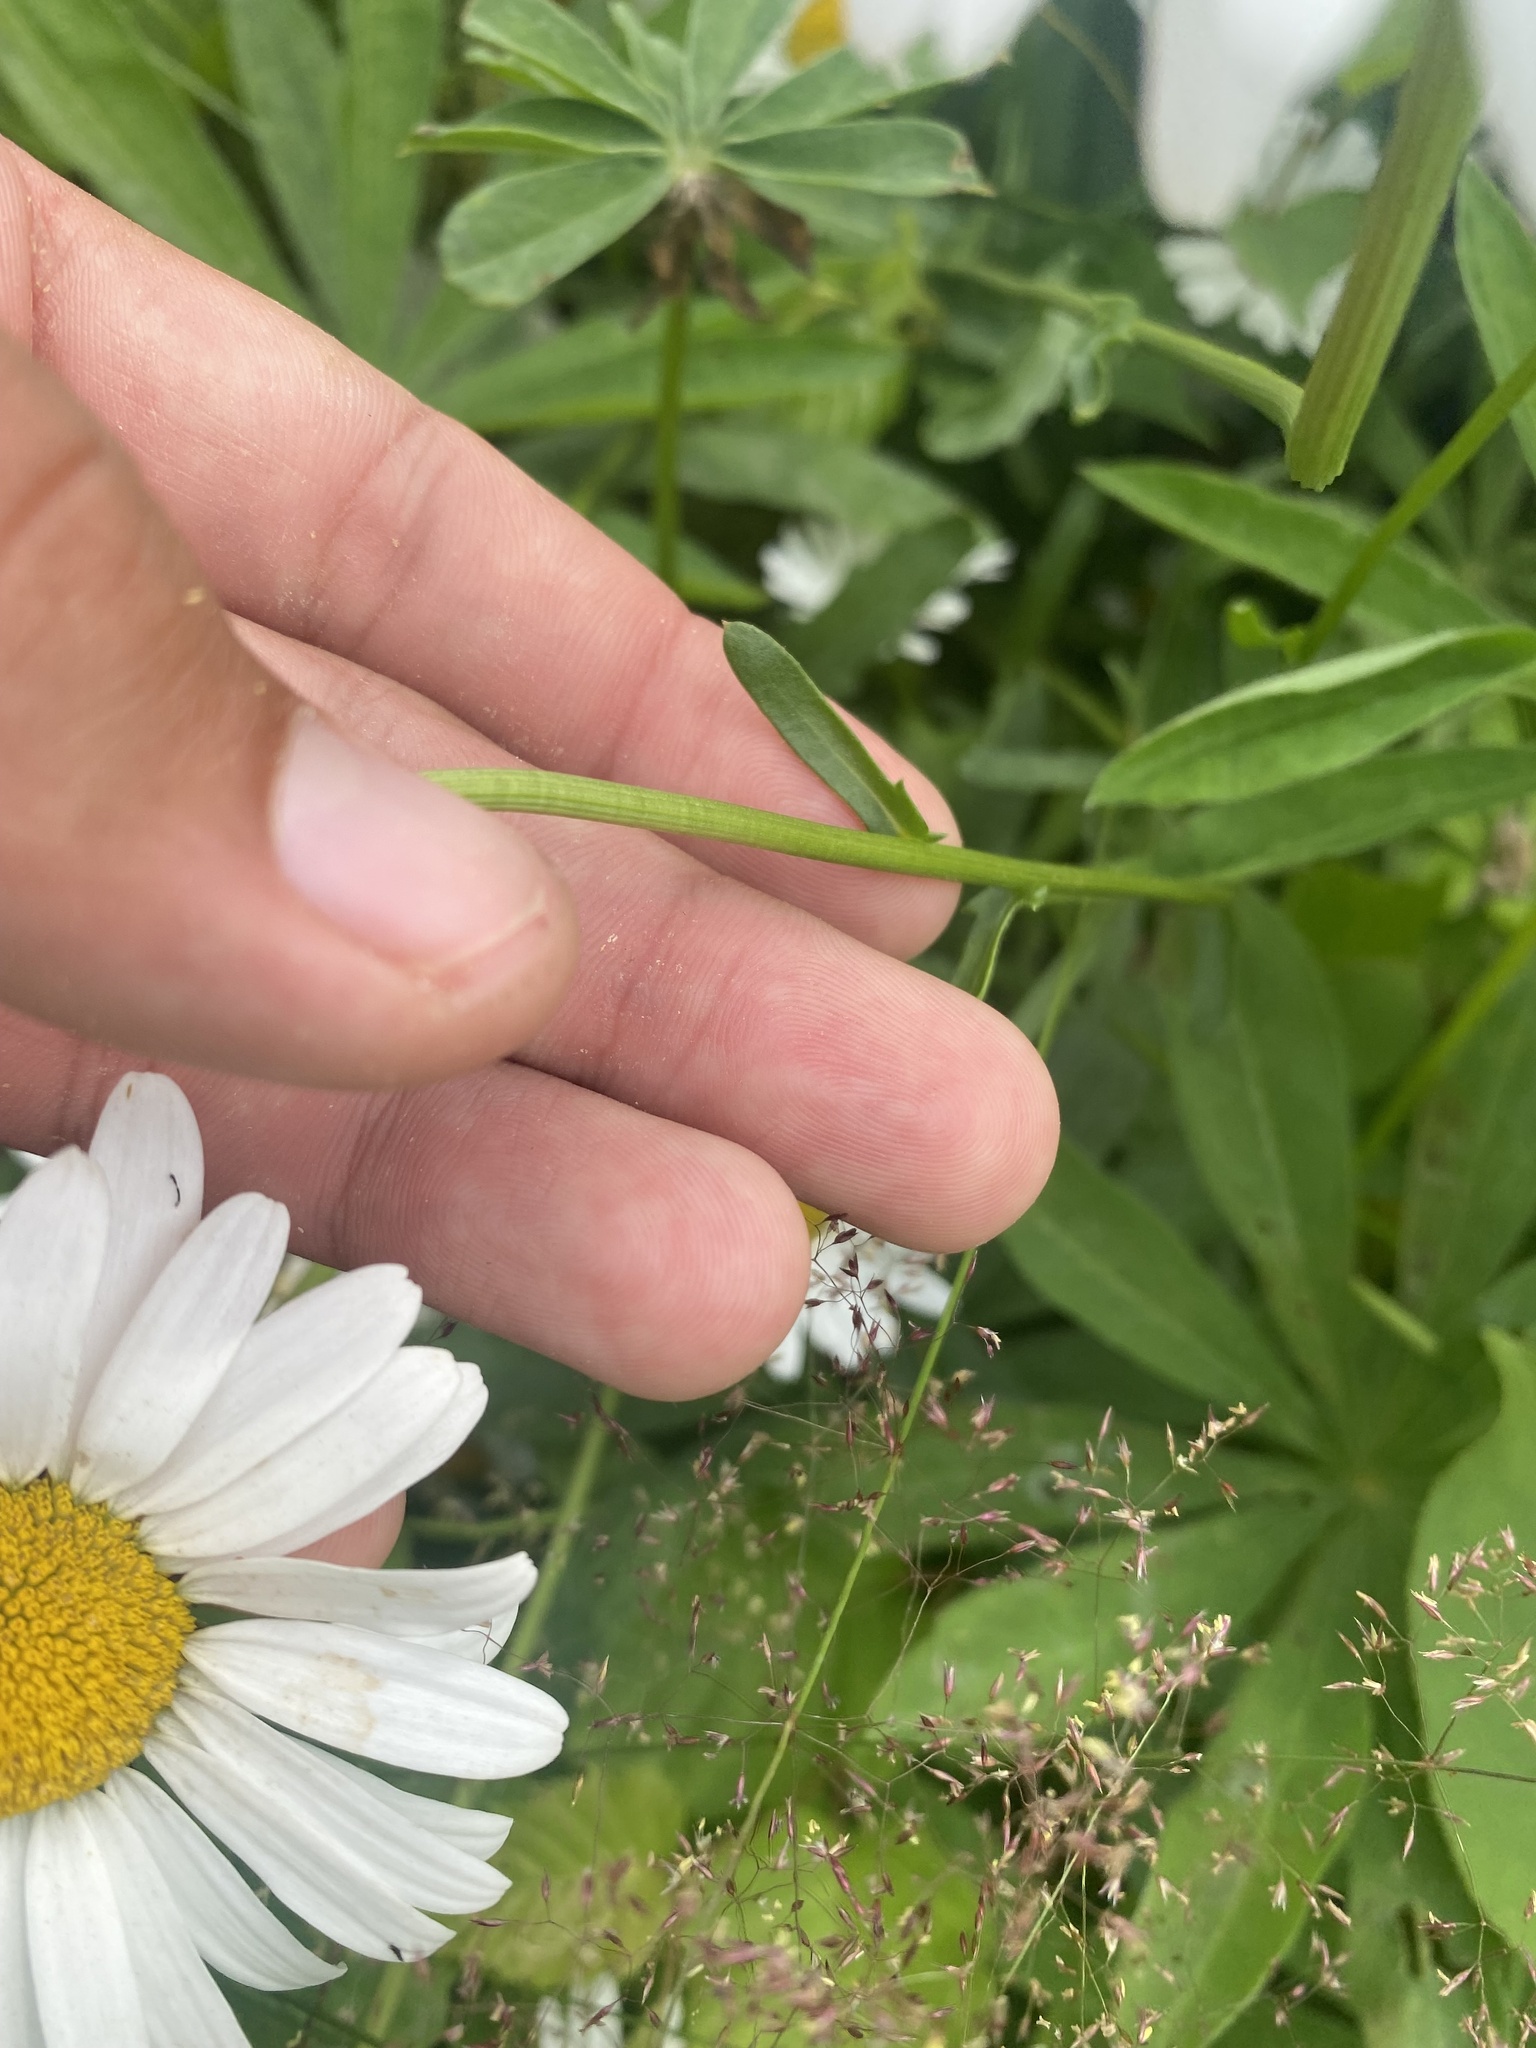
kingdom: Plantae
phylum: Tracheophyta
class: Magnoliopsida
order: Asterales
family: Asteraceae
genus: Leucanthemum
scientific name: Leucanthemum vulgare
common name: Oxeye daisy
